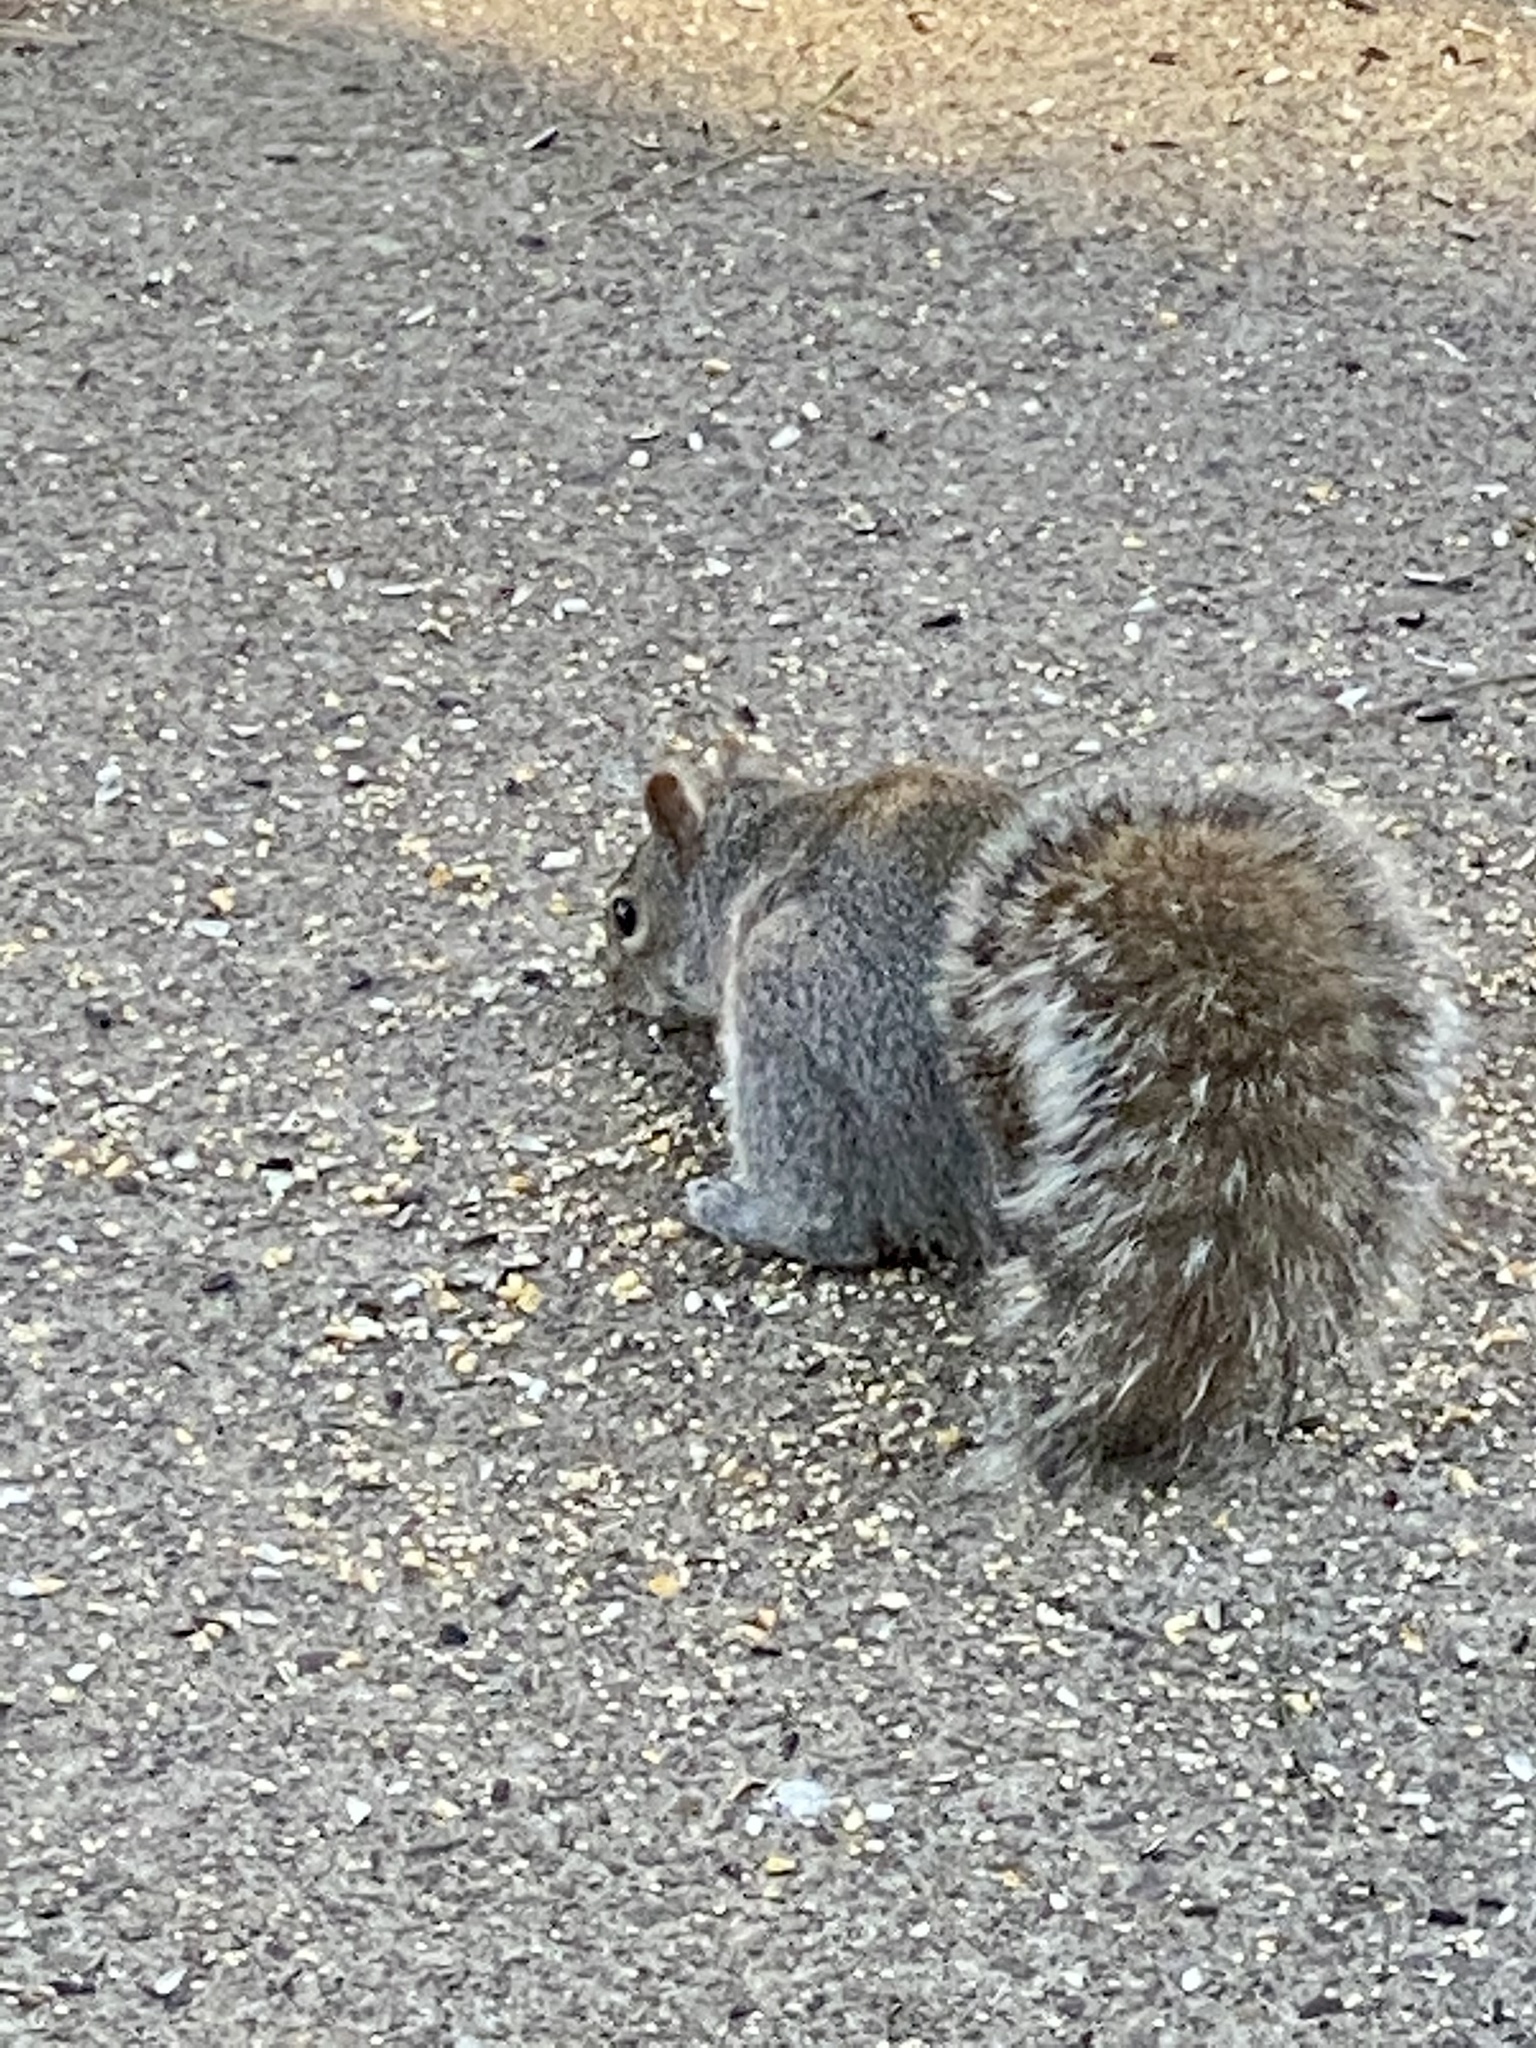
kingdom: Animalia
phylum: Chordata
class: Mammalia
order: Rodentia
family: Sciuridae
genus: Sciurus
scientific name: Sciurus carolinensis
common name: Eastern gray squirrel
